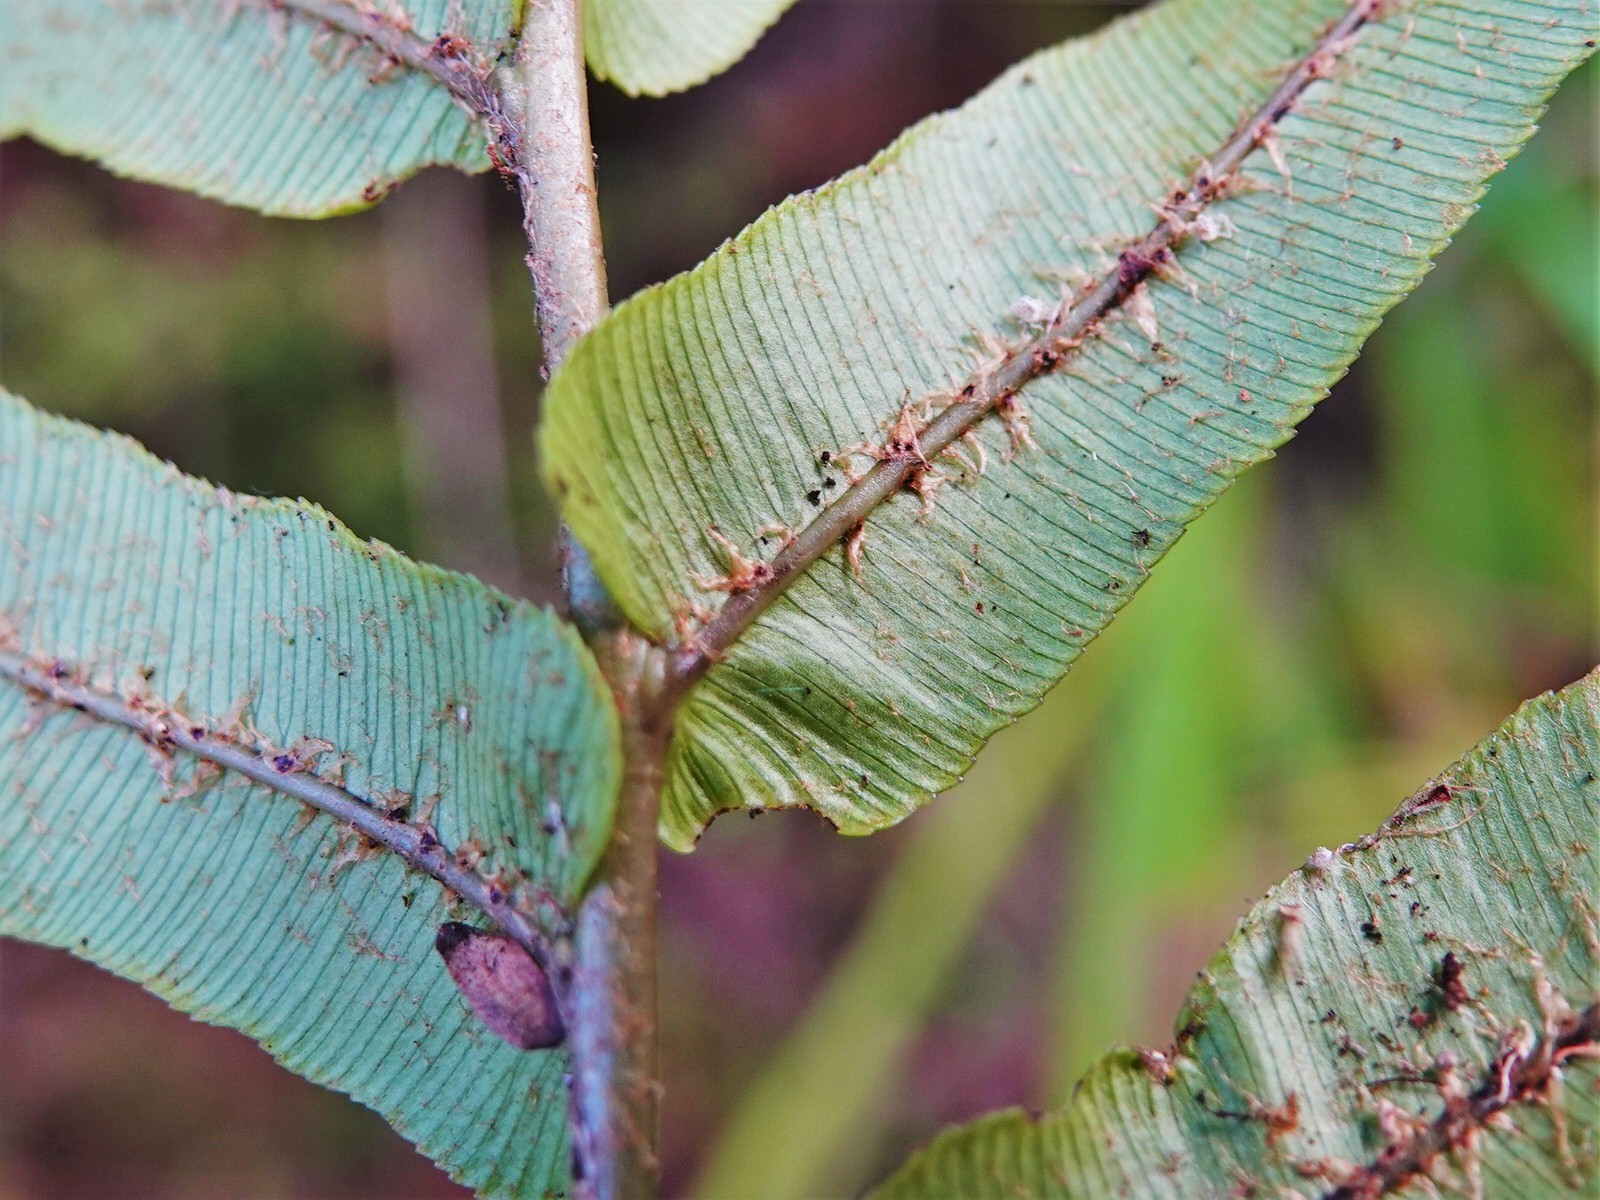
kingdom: Plantae
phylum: Tracheophyta
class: Polypodiopsida
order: Polypodiales
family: Blechnaceae
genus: Parablechnum
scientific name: Parablechnum novae-zelandiae
